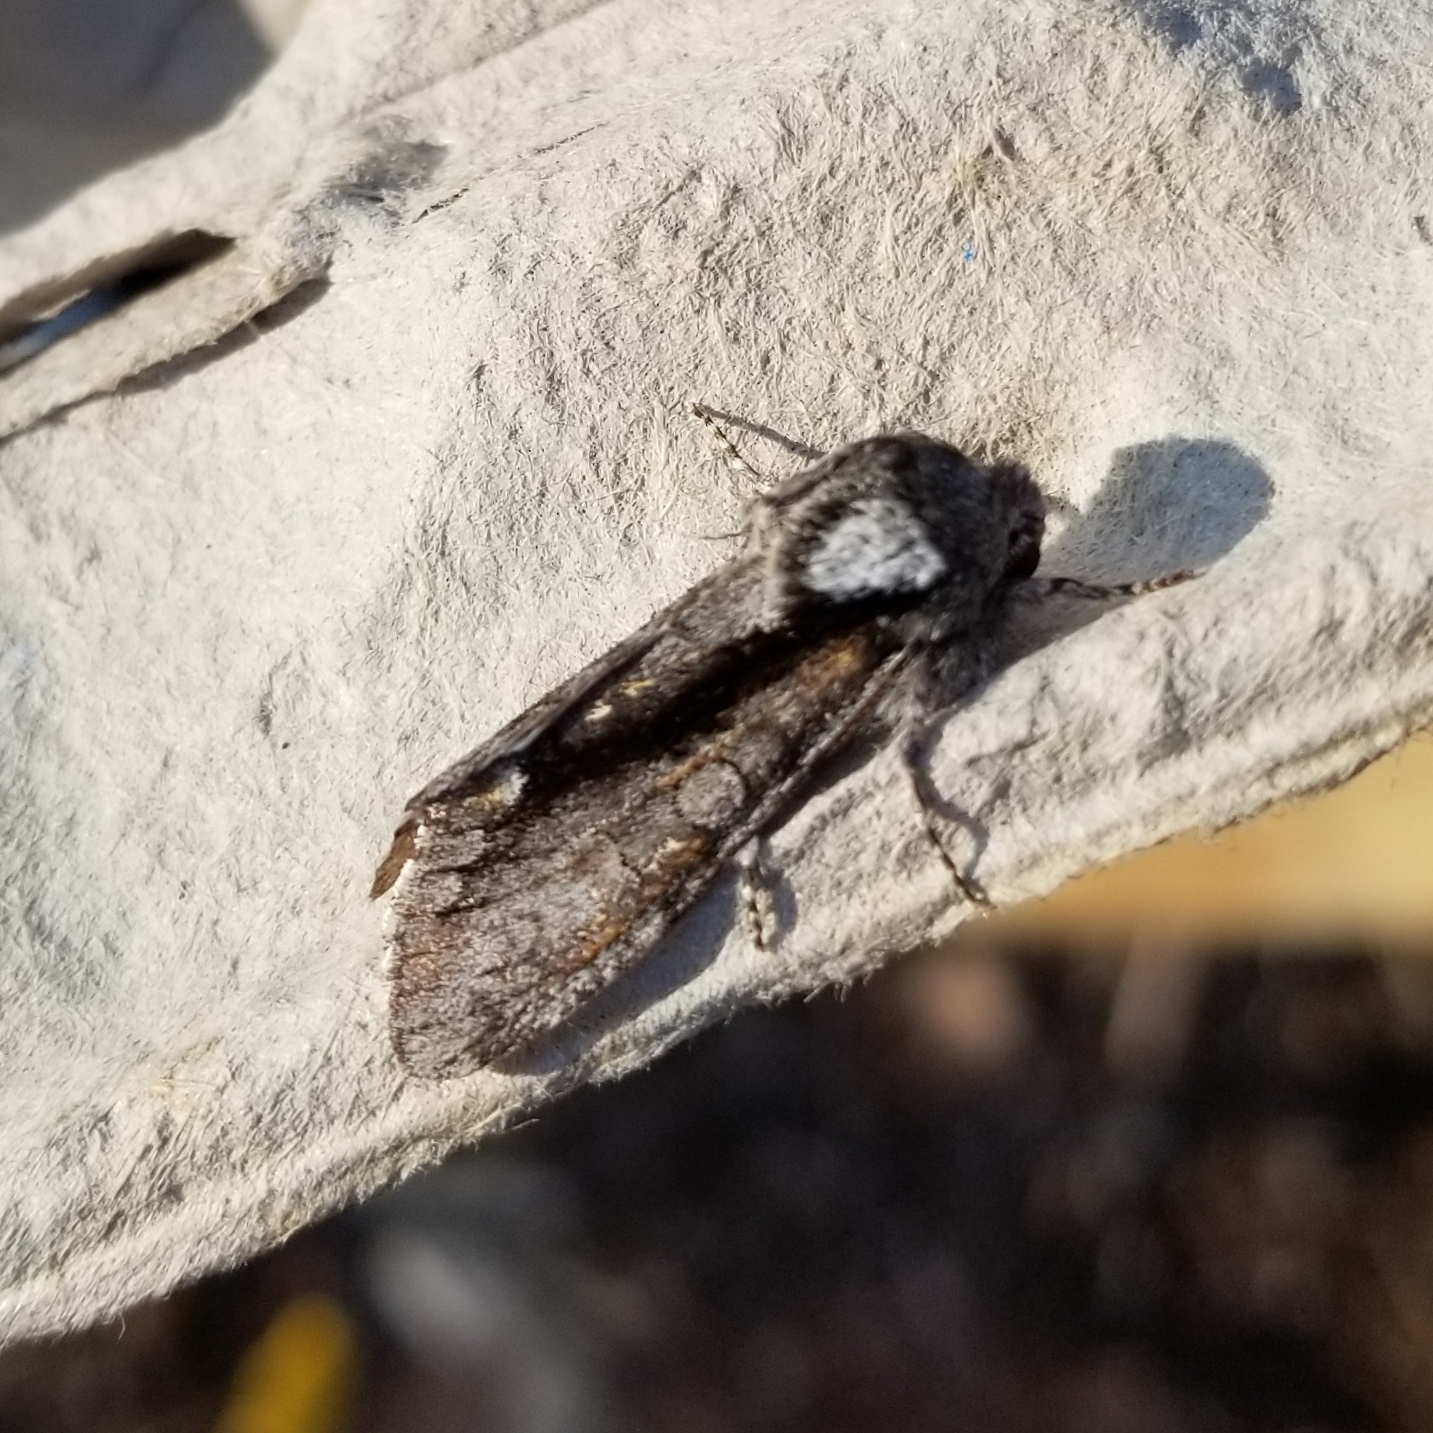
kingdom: Animalia
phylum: Arthropoda
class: Insecta
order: Lepidoptera
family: Noctuidae
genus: Psaphida
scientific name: Psaphida electilis
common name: Chosen sallow
